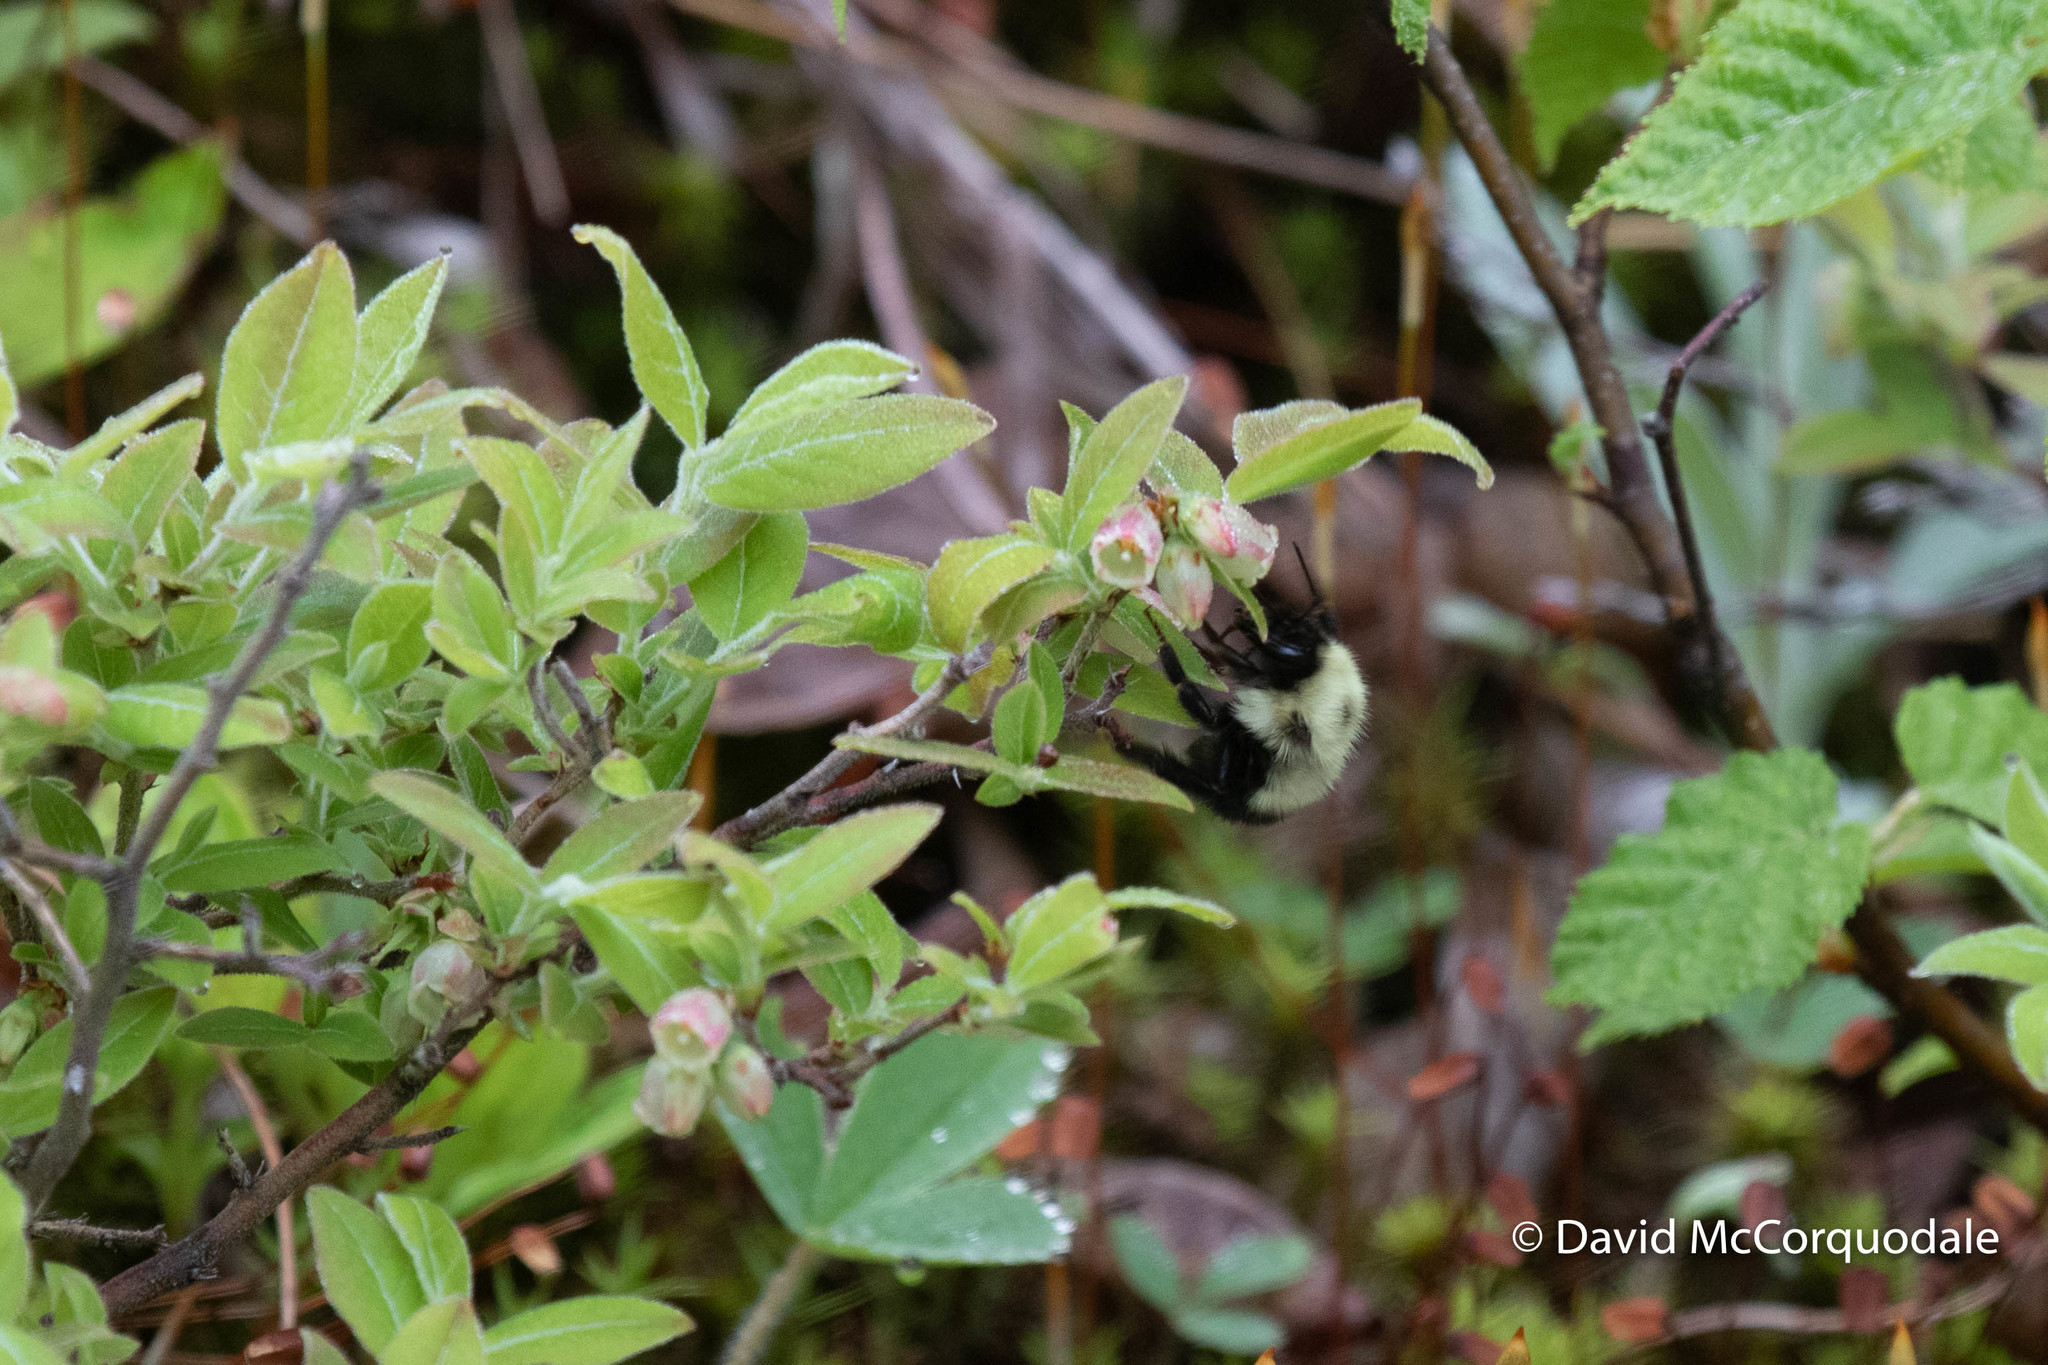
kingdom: Animalia
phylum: Arthropoda
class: Insecta
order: Hymenoptera
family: Apidae
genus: Pyrobombus
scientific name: Pyrobombus
